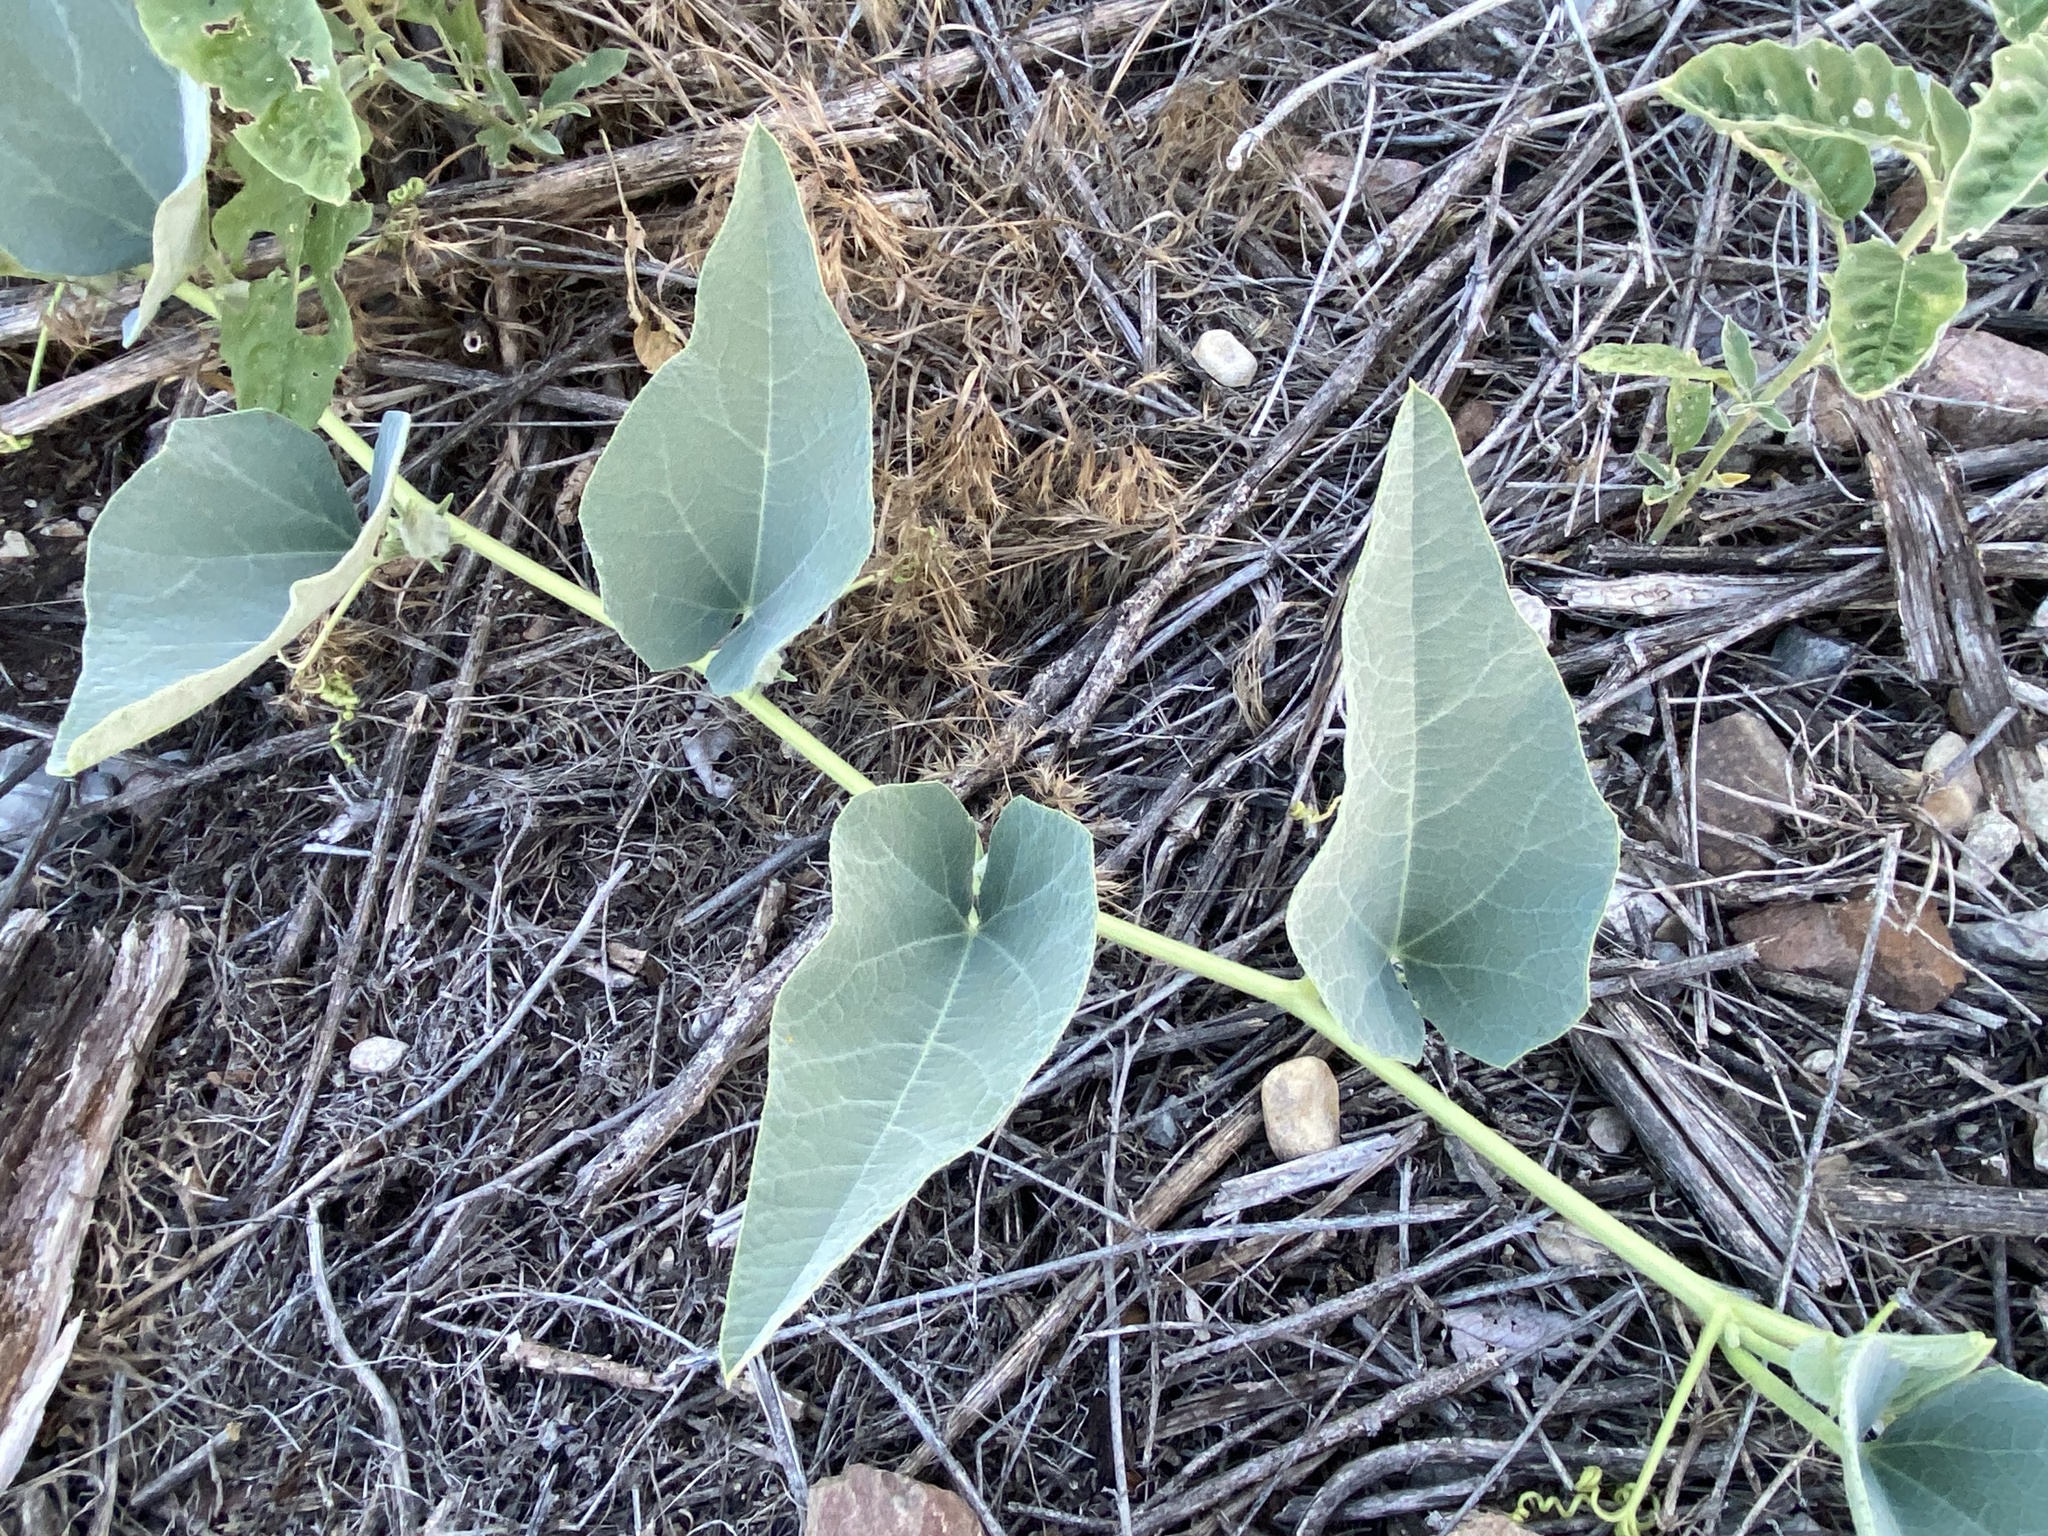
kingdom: Plantae
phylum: Tracheophyta
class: Magnoliopsida
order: Cucurbitales
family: Cucurbitaceae
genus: Cucurbita
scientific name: Cucurbita foetidissima
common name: Buffalo gourd
